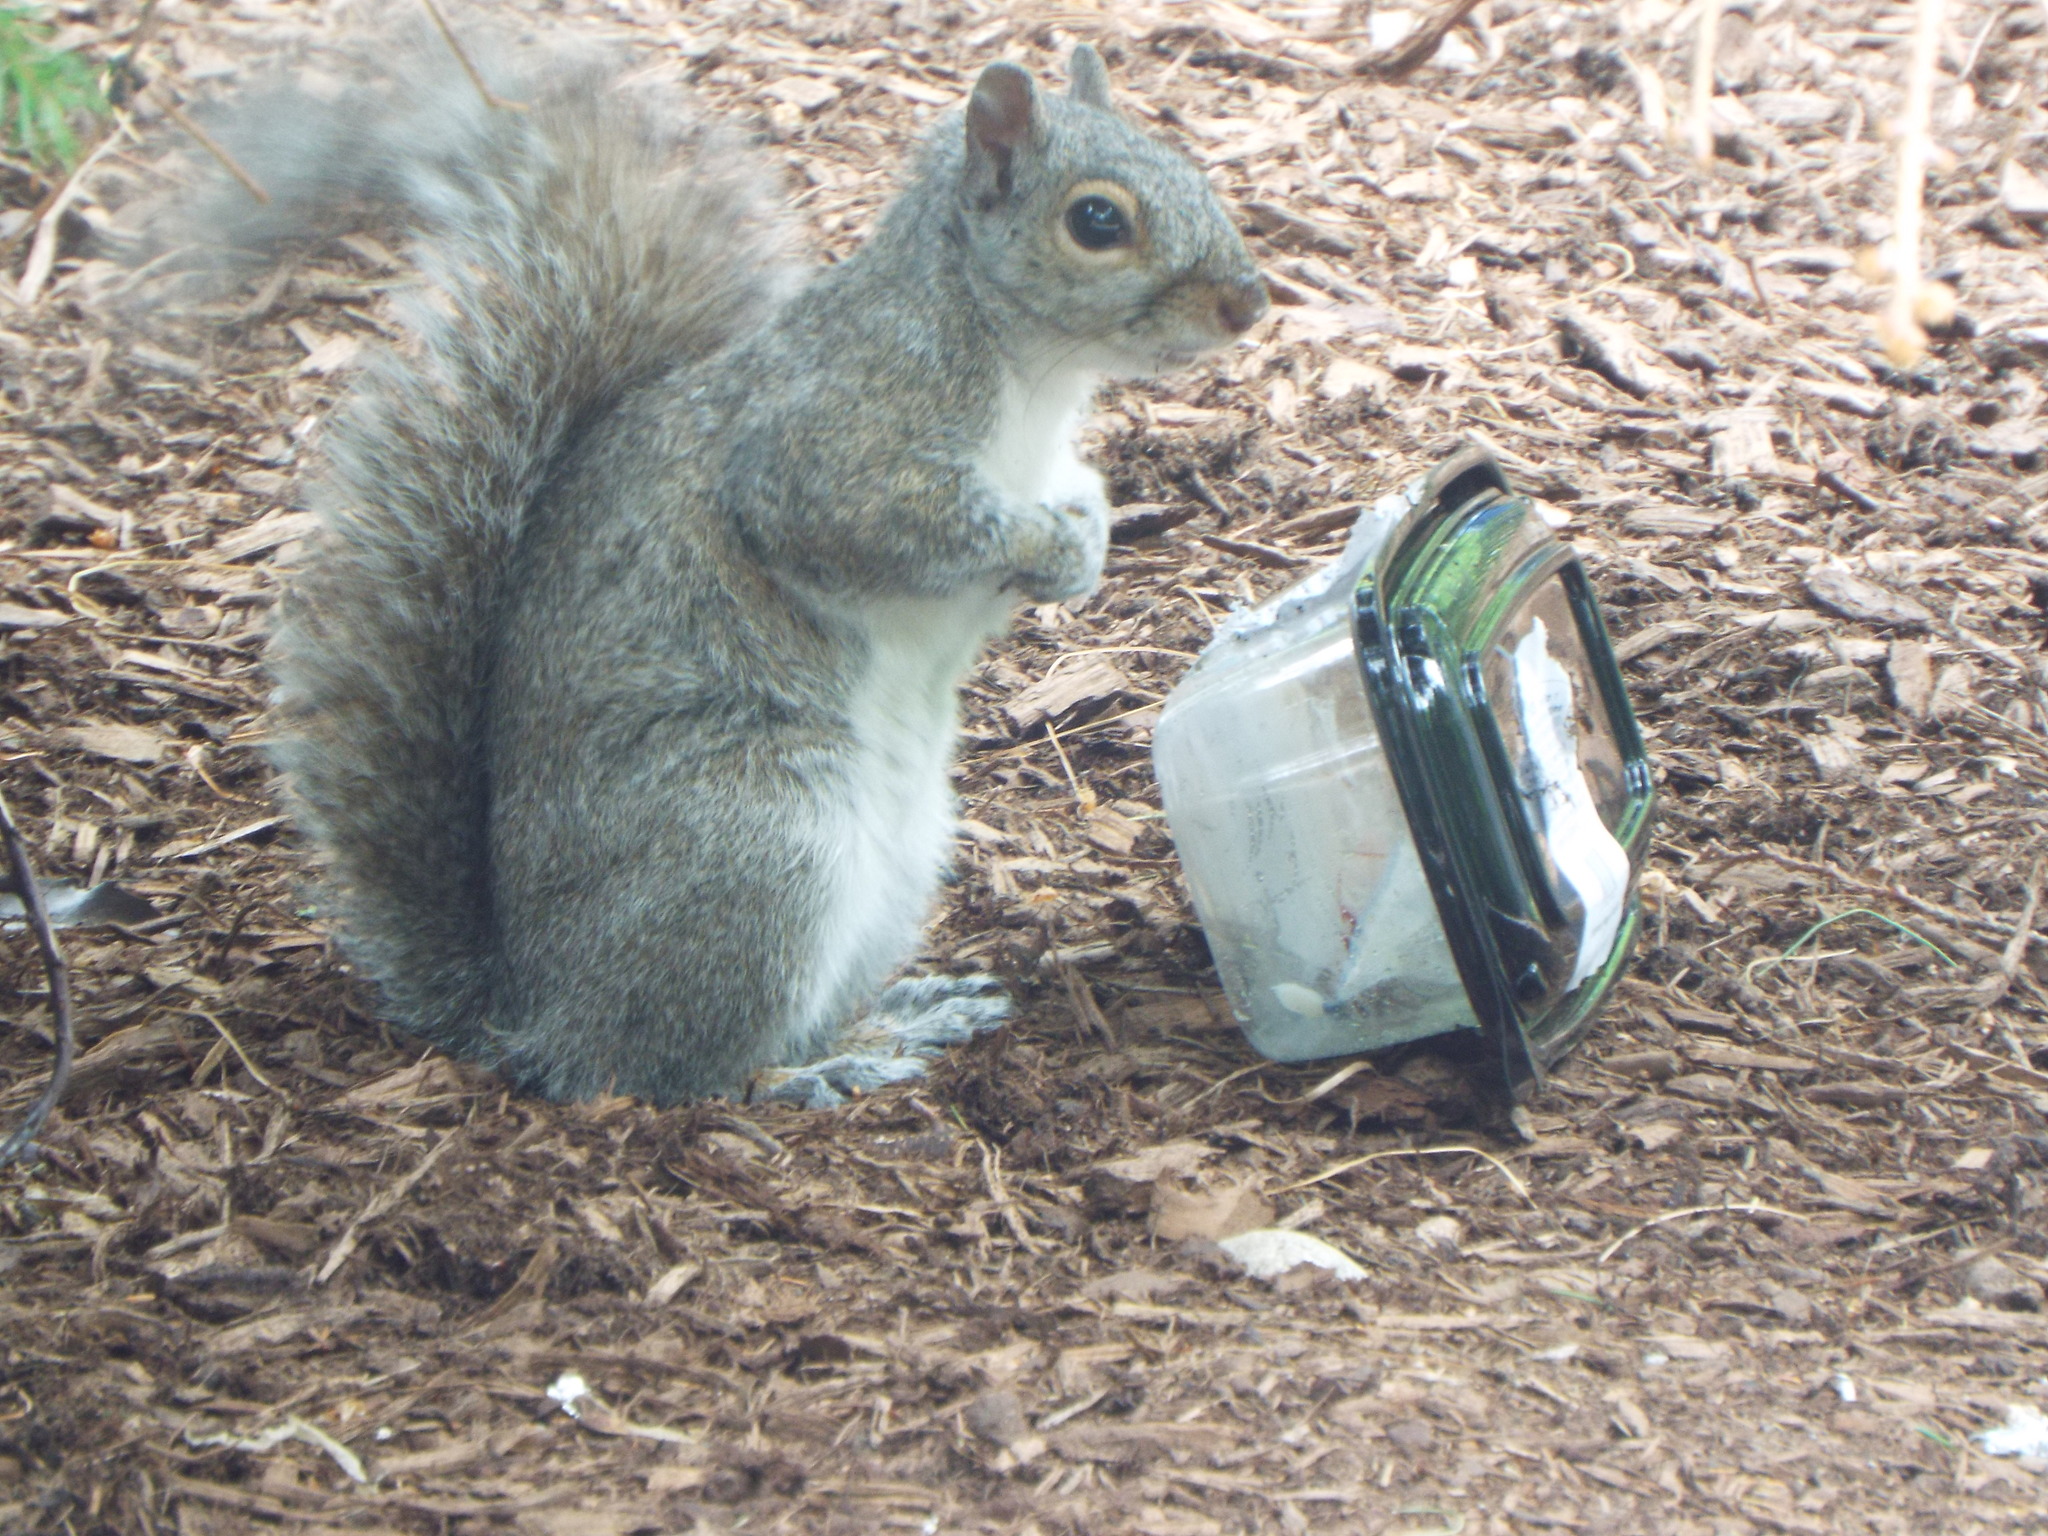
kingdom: Animalia
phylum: Chordata
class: Mammalia
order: Rodentia
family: Sciuridae
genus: Sciurus
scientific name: Sciurus carolinensis
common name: Eastern gray squirrel
